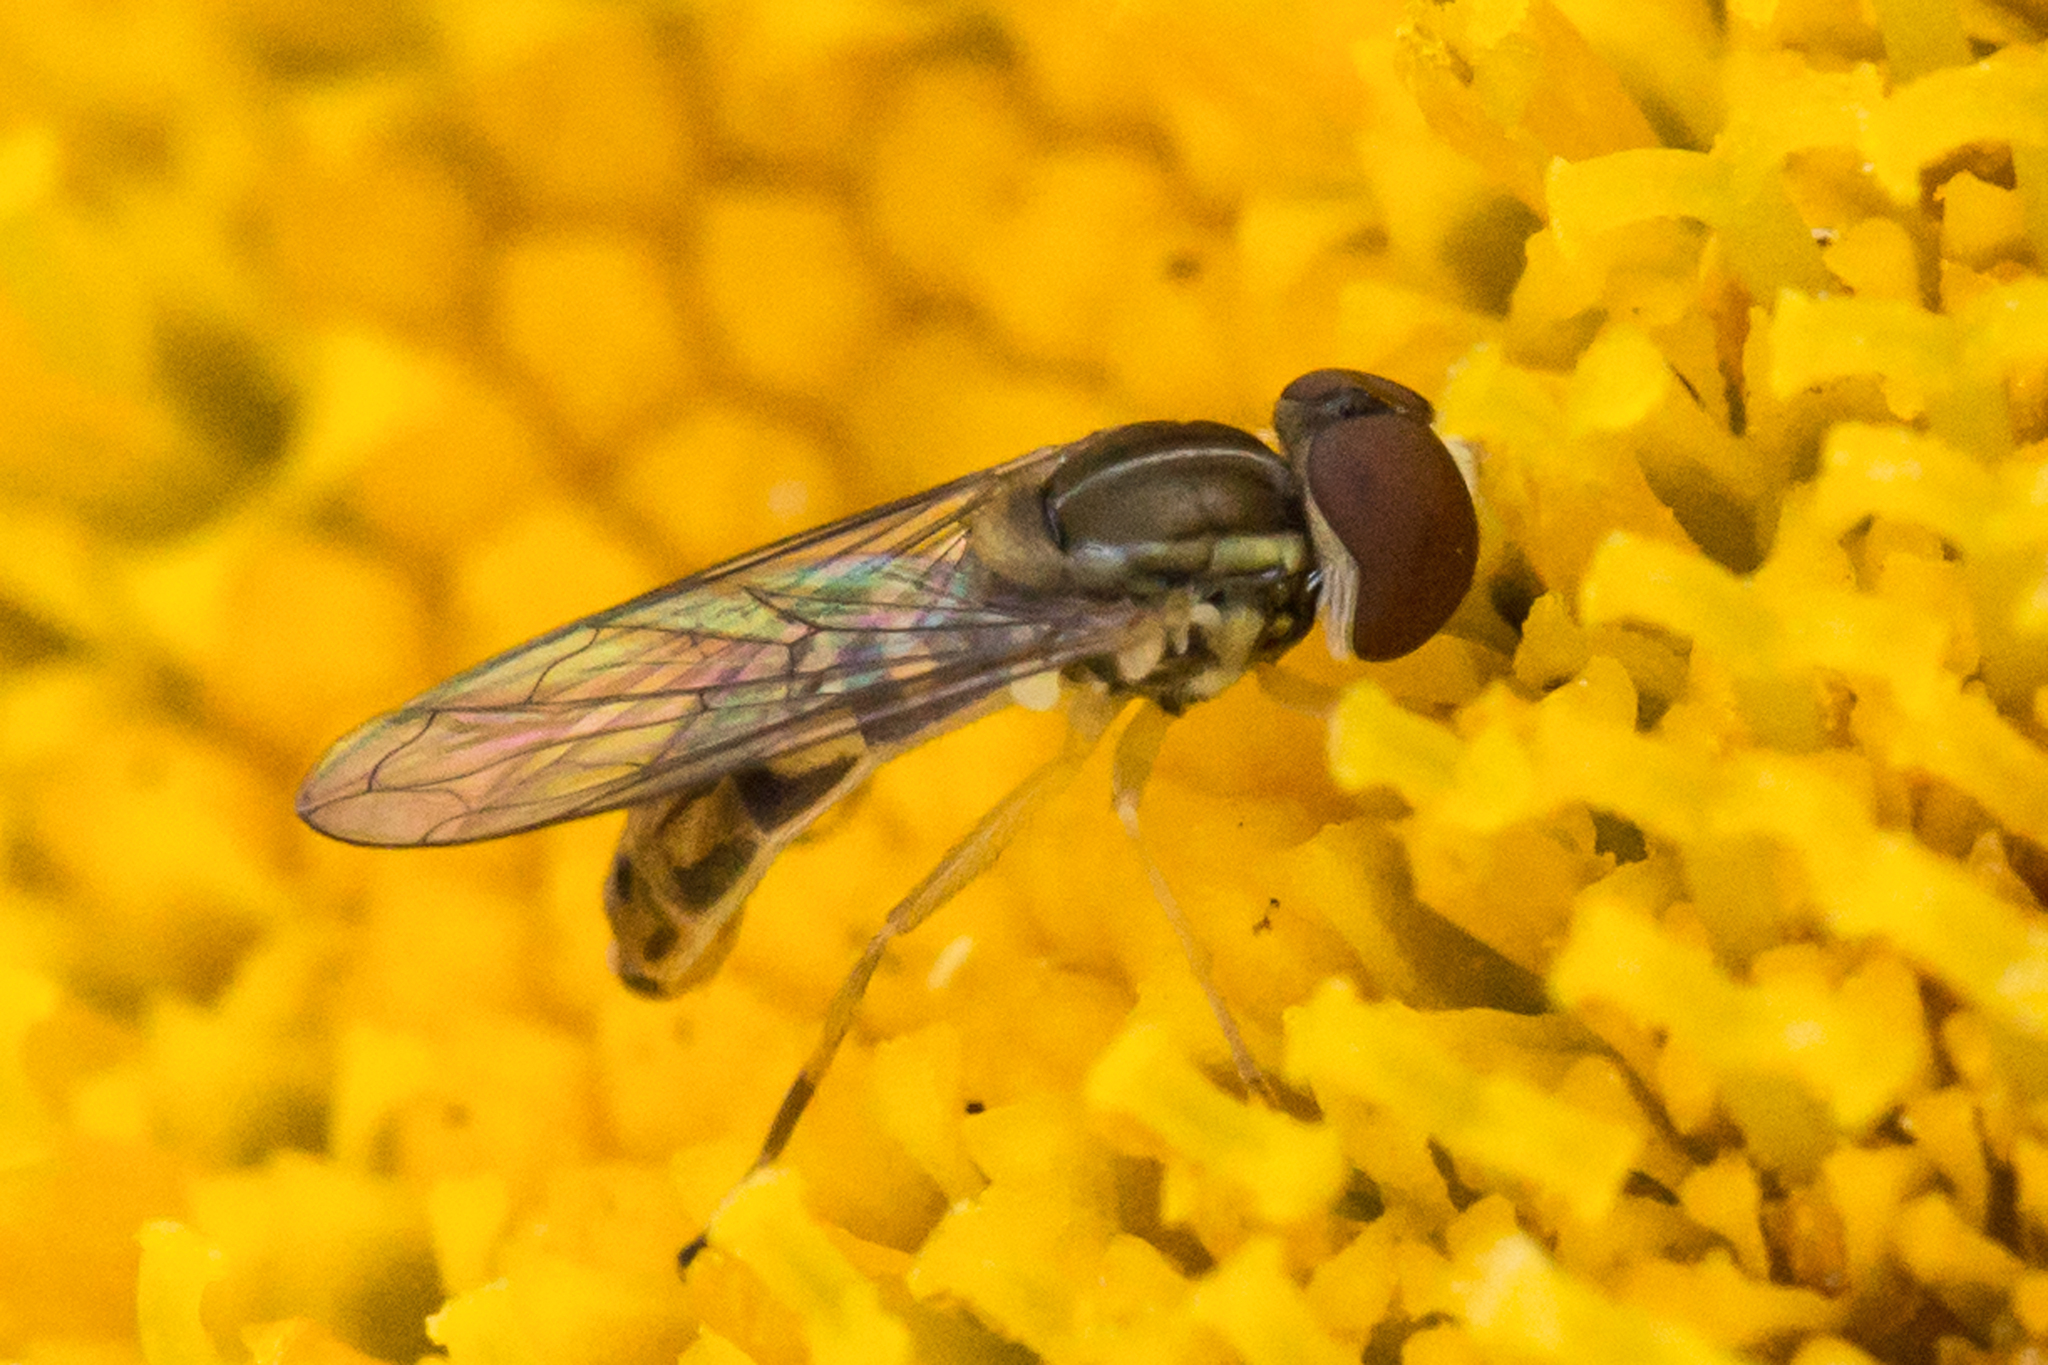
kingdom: Animalia
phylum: Arthropoda
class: Insecta
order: Diptera
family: Syrphidae
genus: Toxomerus
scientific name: Toxomerus marginatus
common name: Syrphid fly
